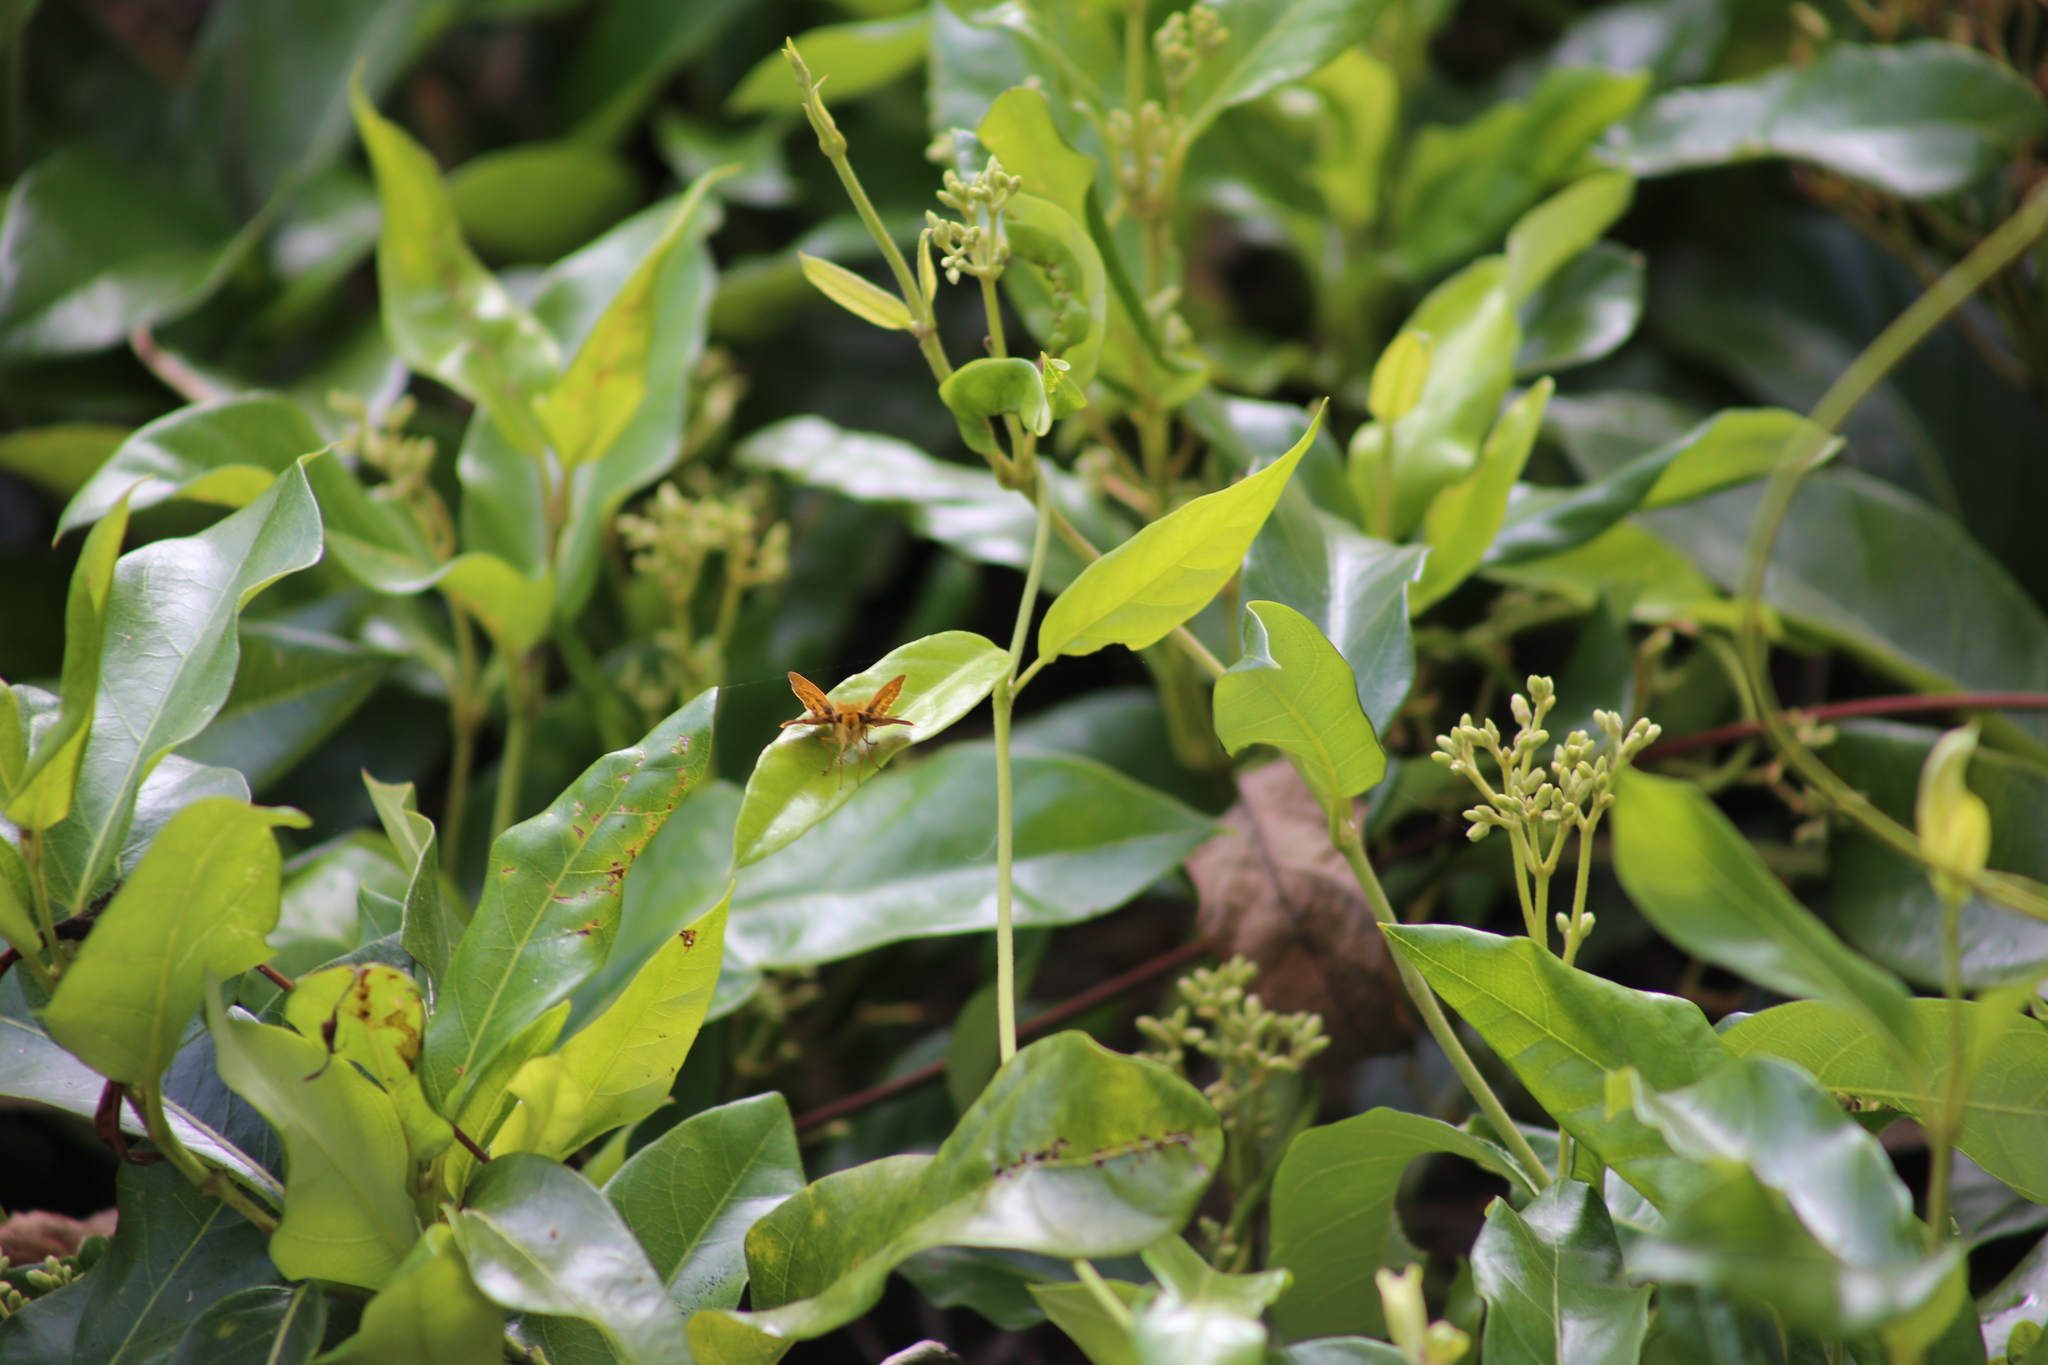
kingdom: Animalia
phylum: Arthropoda
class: Insecta
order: Lepidoptera
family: Hesperiidae
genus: Telicota
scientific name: Telicota colon
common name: Pale palm dart
